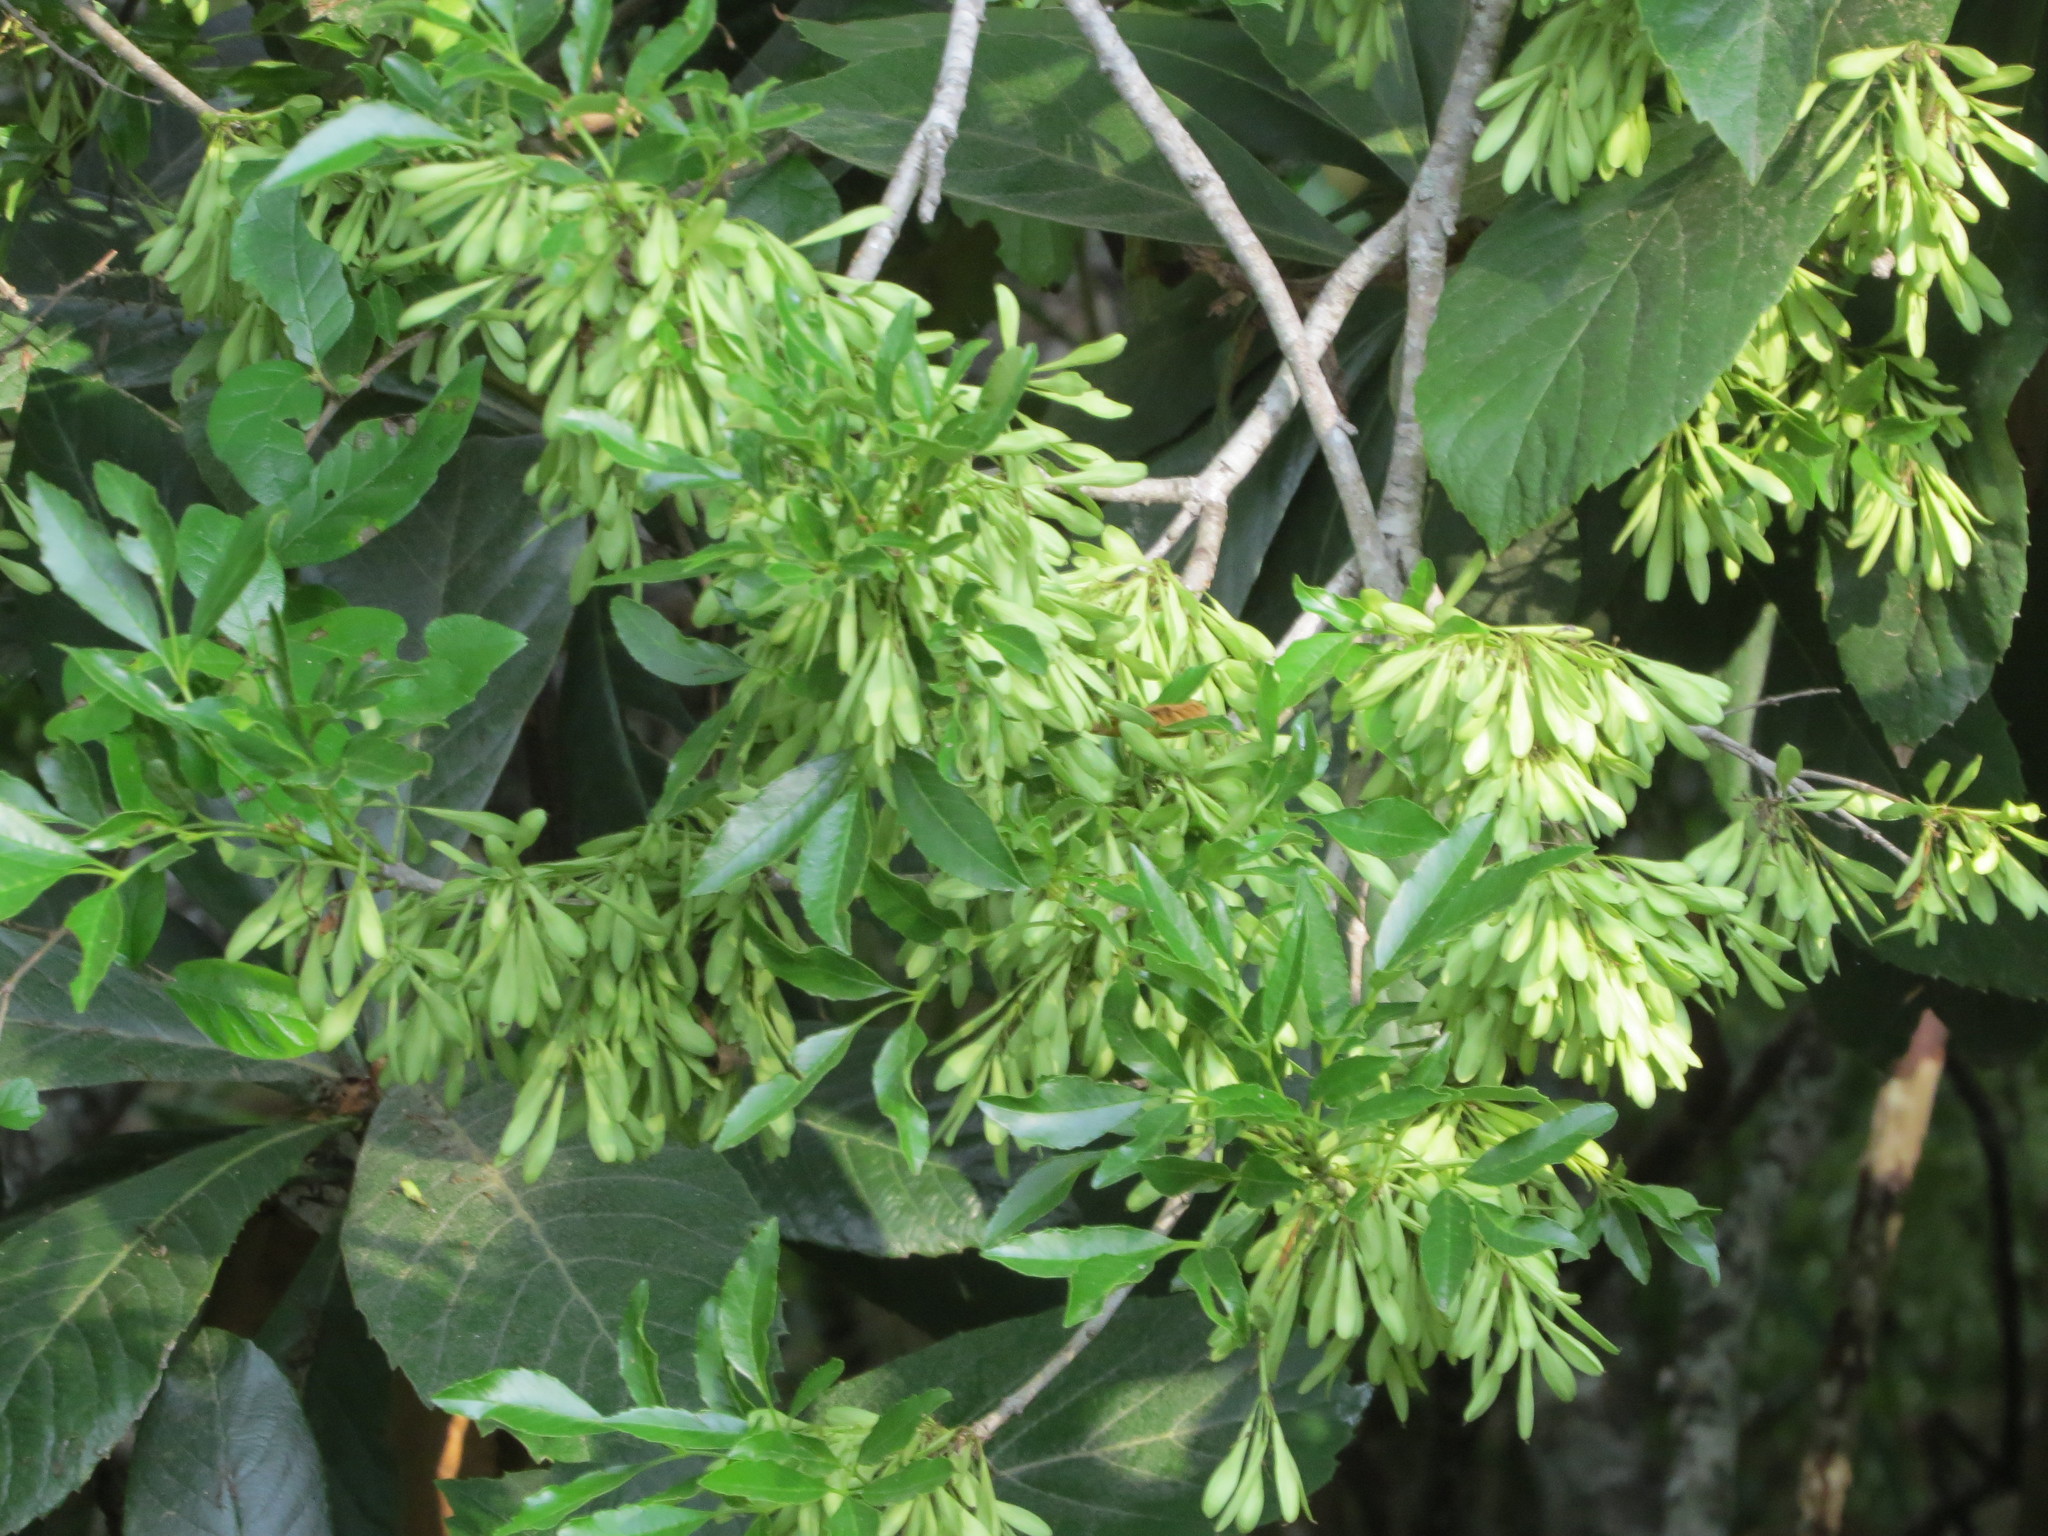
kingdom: Plantae
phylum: Tracheophyta
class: Magnoliopsida
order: Lamiales
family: Oleaceae
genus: Fraxinus
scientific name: Fraxinus berlandieriana
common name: Berlandier ash
